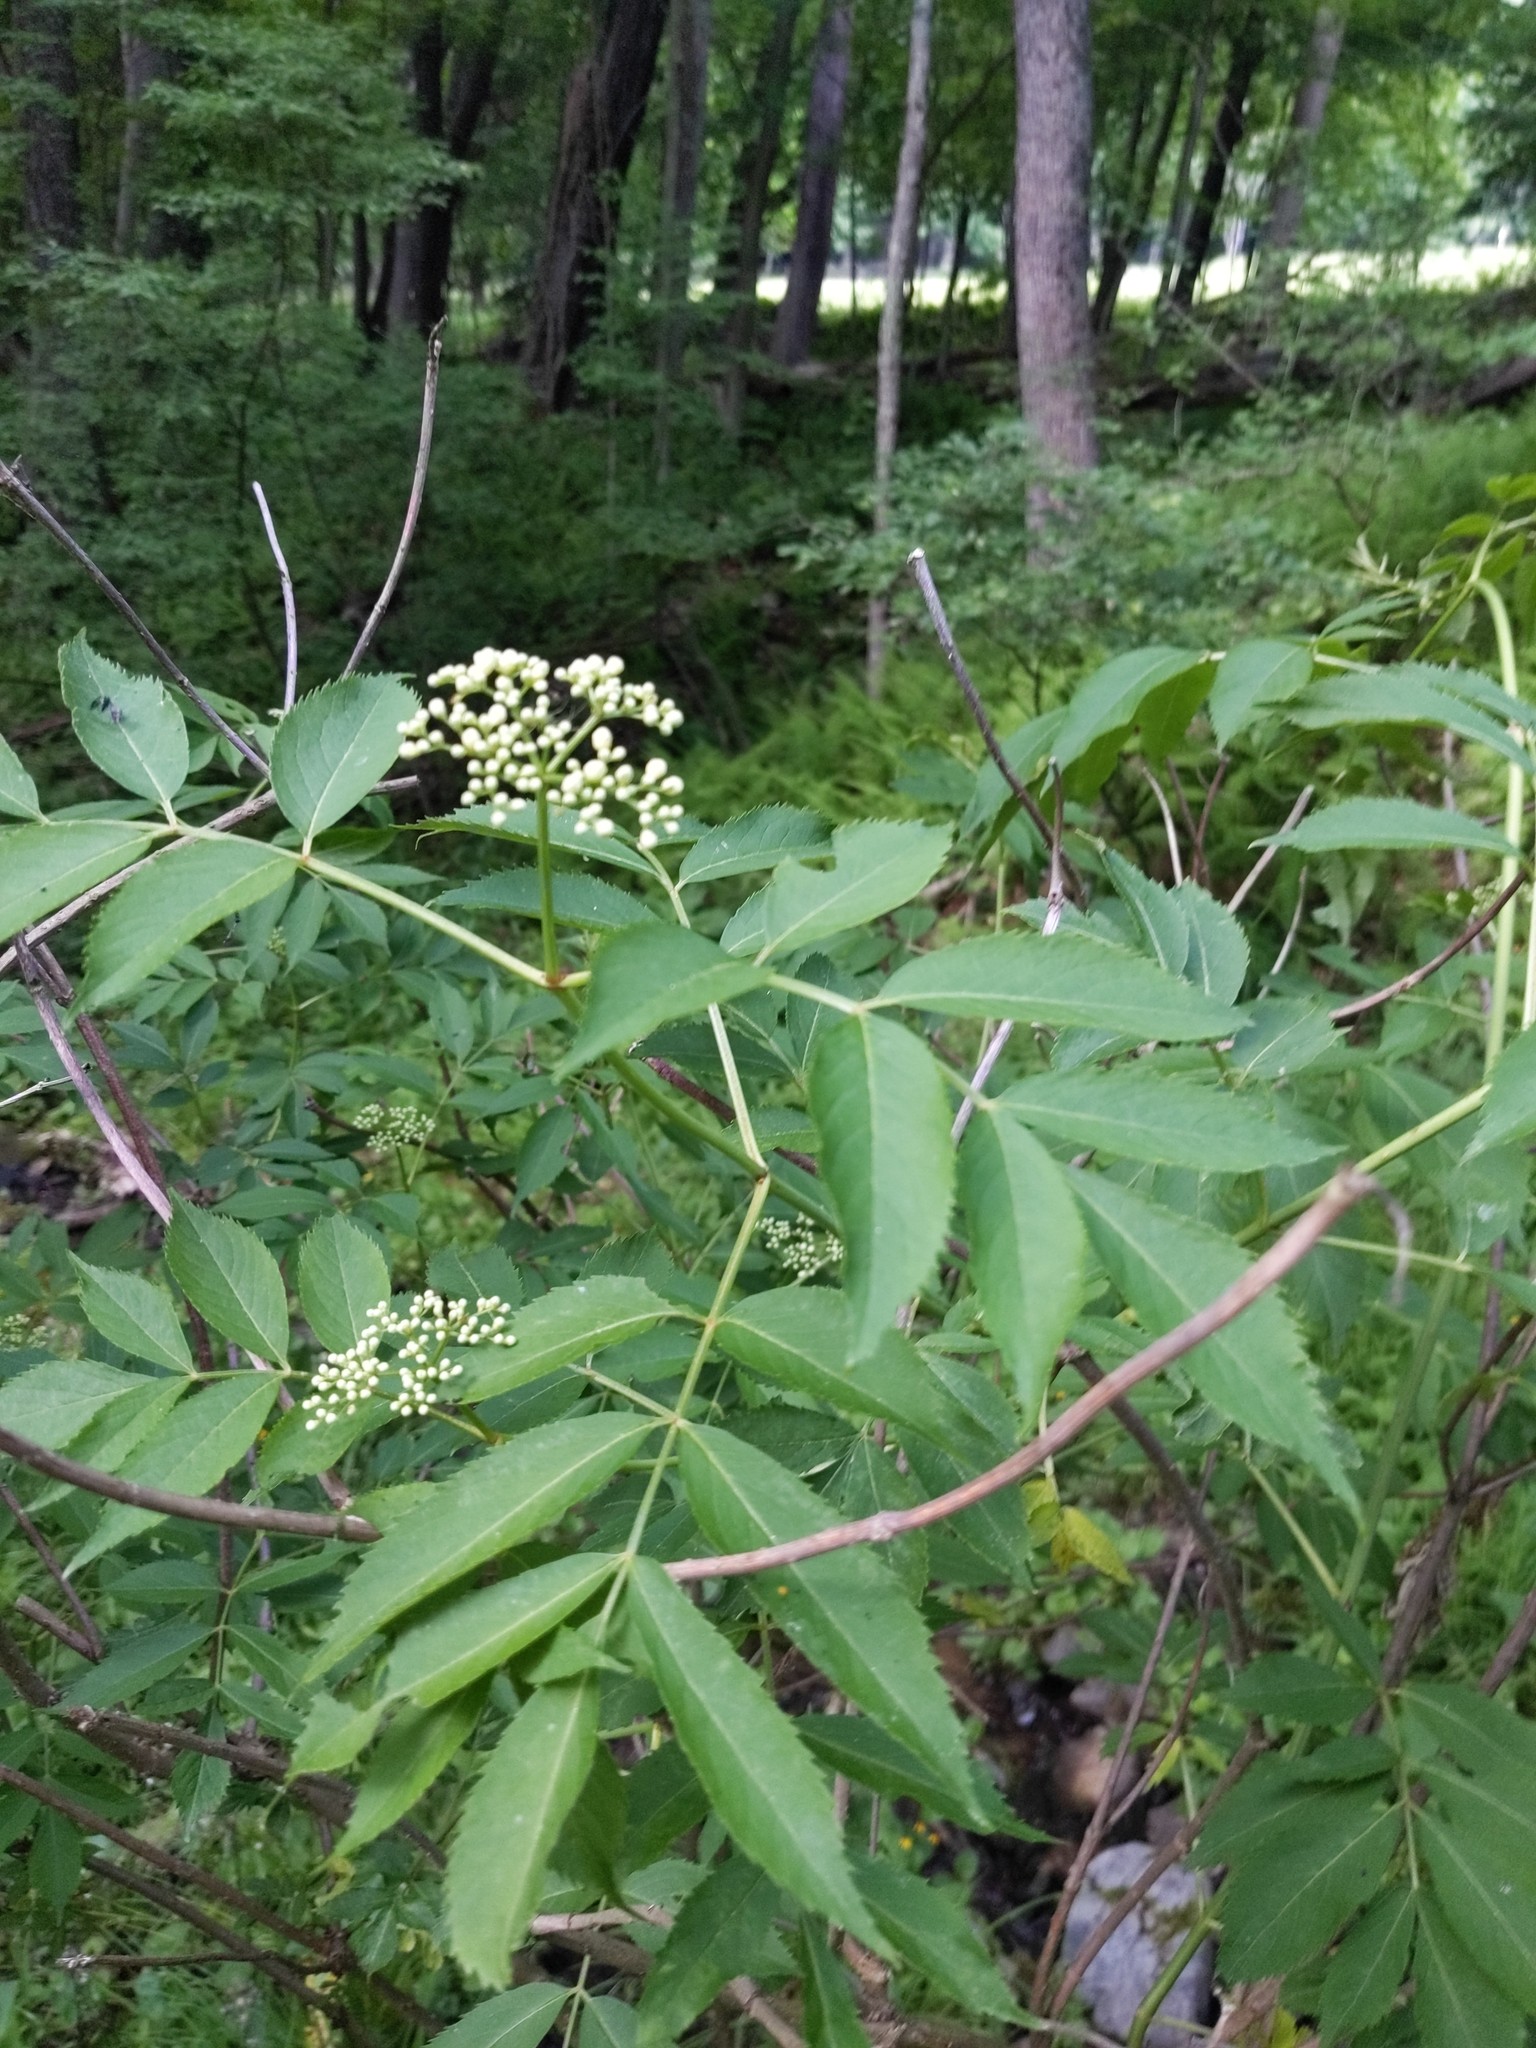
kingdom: Plantae
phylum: Tracheophyta
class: Magnoliopsida
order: Dipsacales
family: Viburnaceae
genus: Sambucus
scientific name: Sambucus canadensis
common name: American elder
